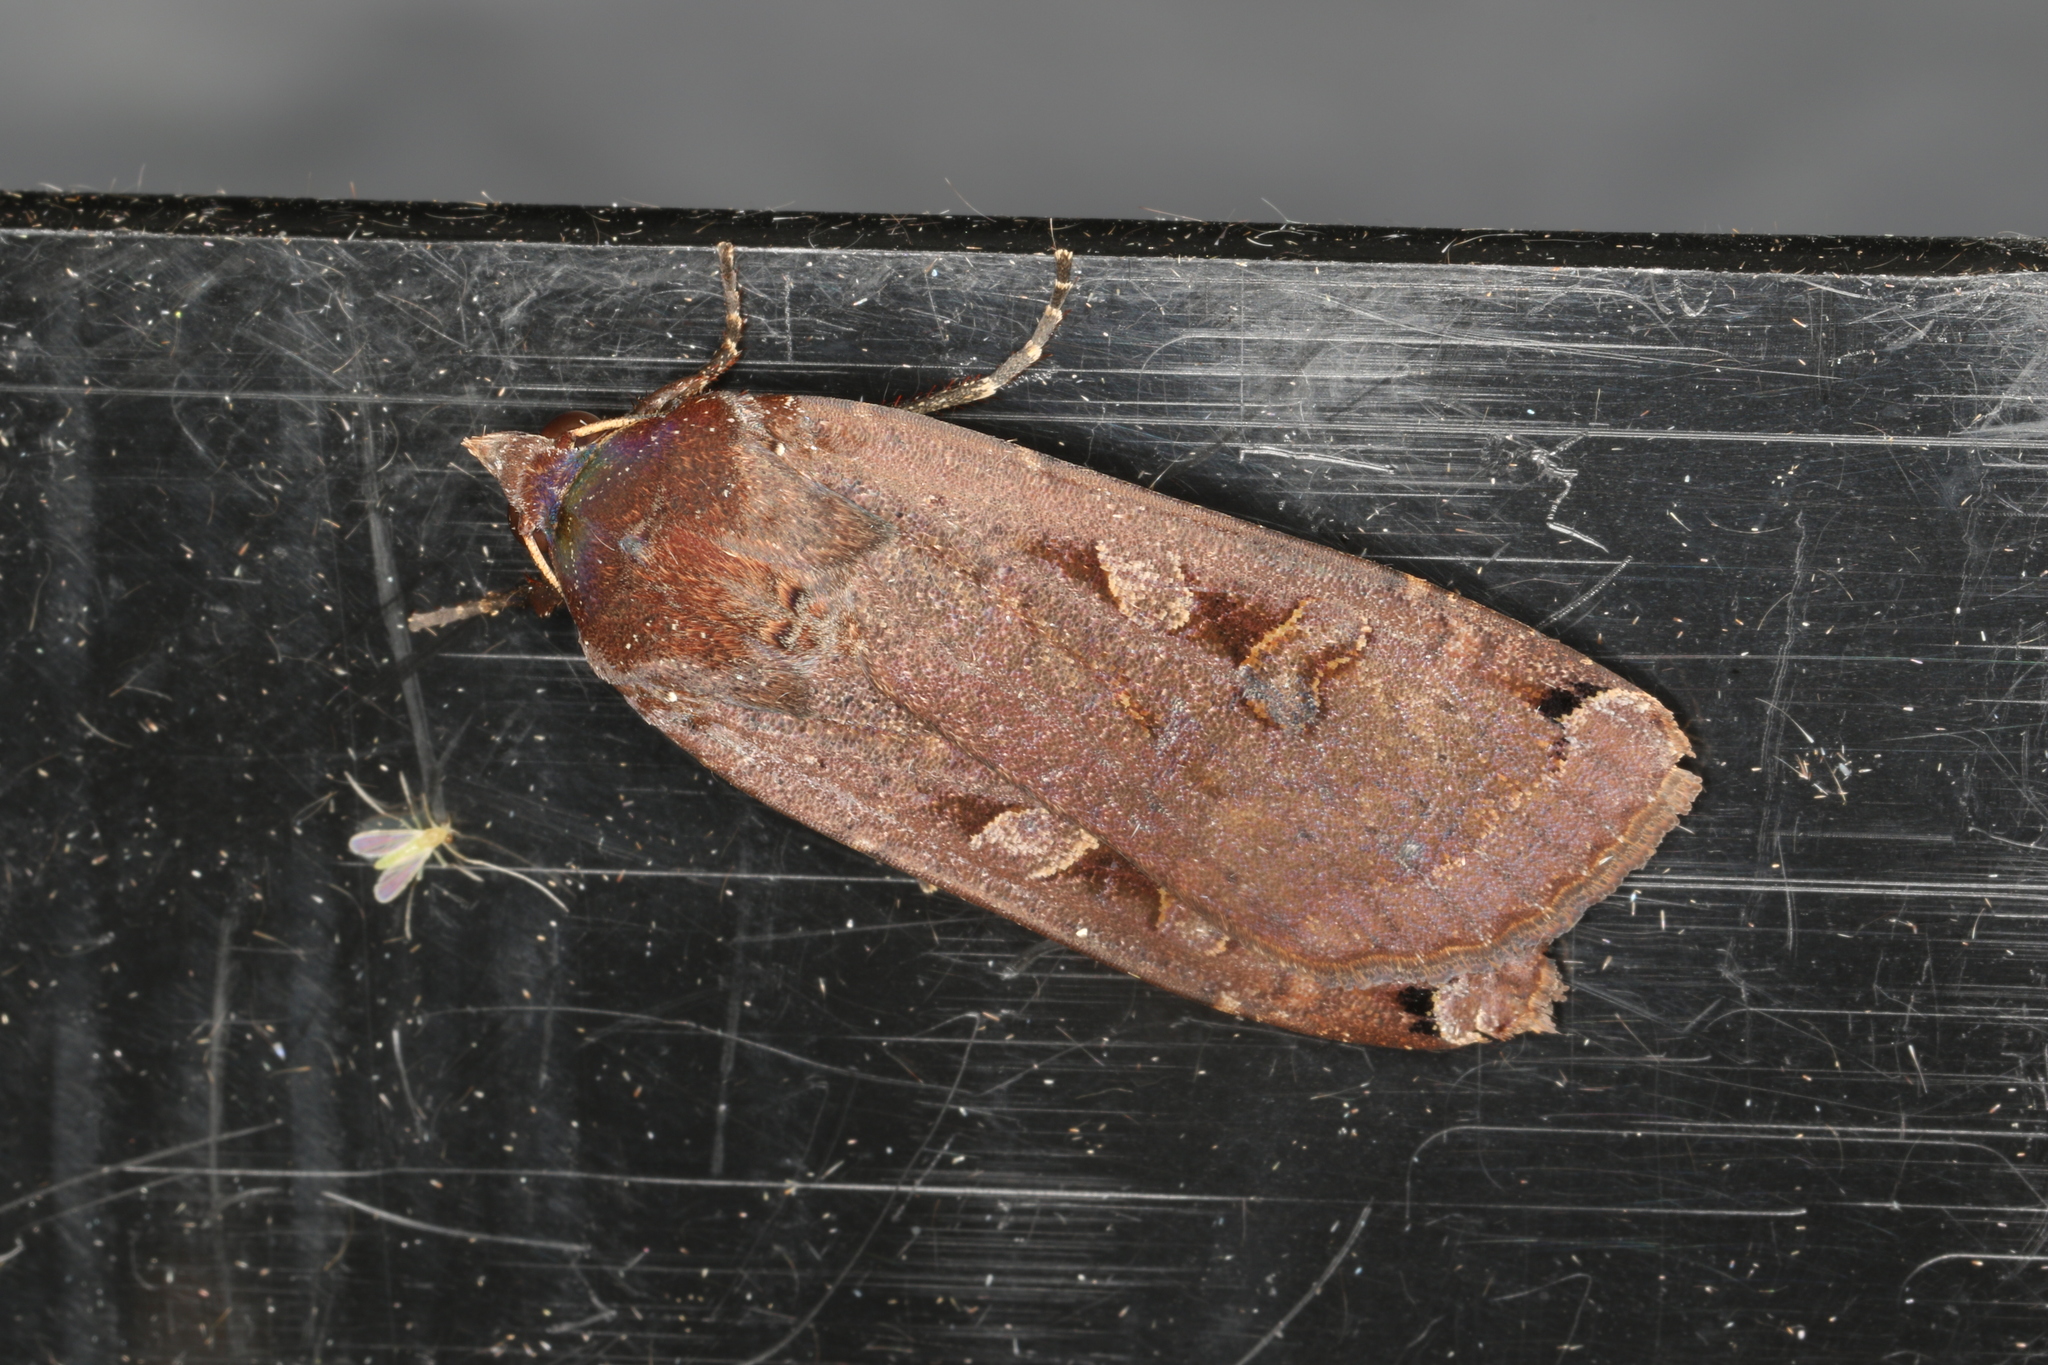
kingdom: Animalia
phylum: Arthropoda
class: Insecta
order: Lepidoptera
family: Noctuidae
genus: Noctua
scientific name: Noctua pronuba
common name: Large yellow underwing
